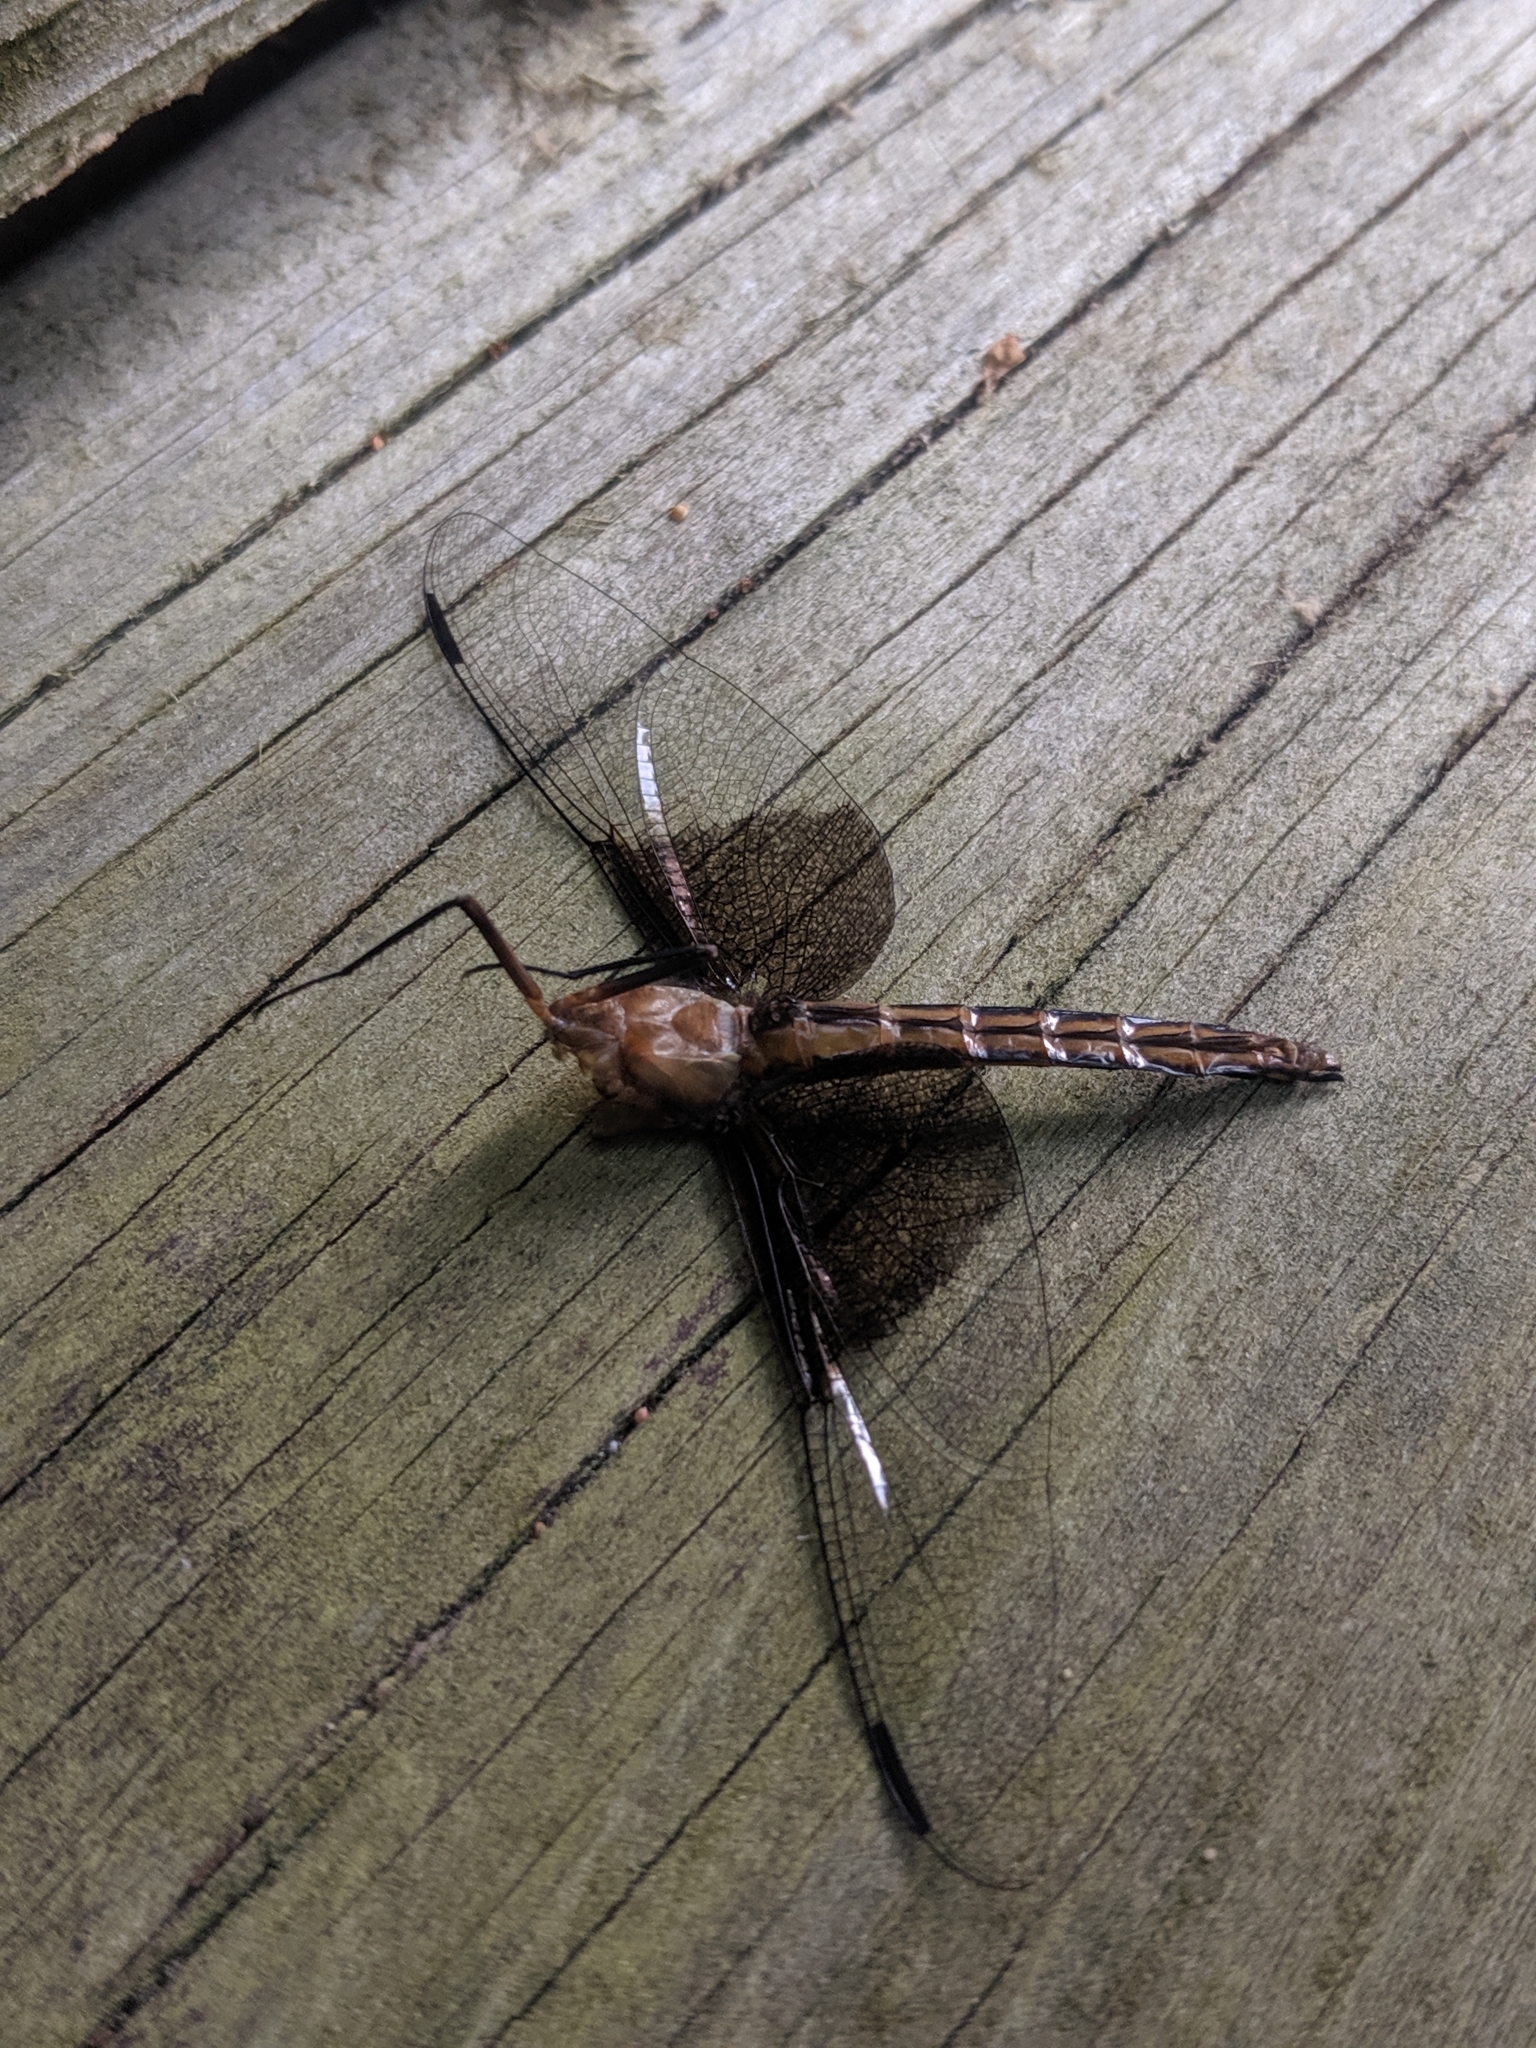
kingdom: Animalia
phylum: Arthropoda
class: Insecta
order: Odonata
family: Libellulidae
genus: Libellula
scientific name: Libellula luctuosa
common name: Widow skimmer
